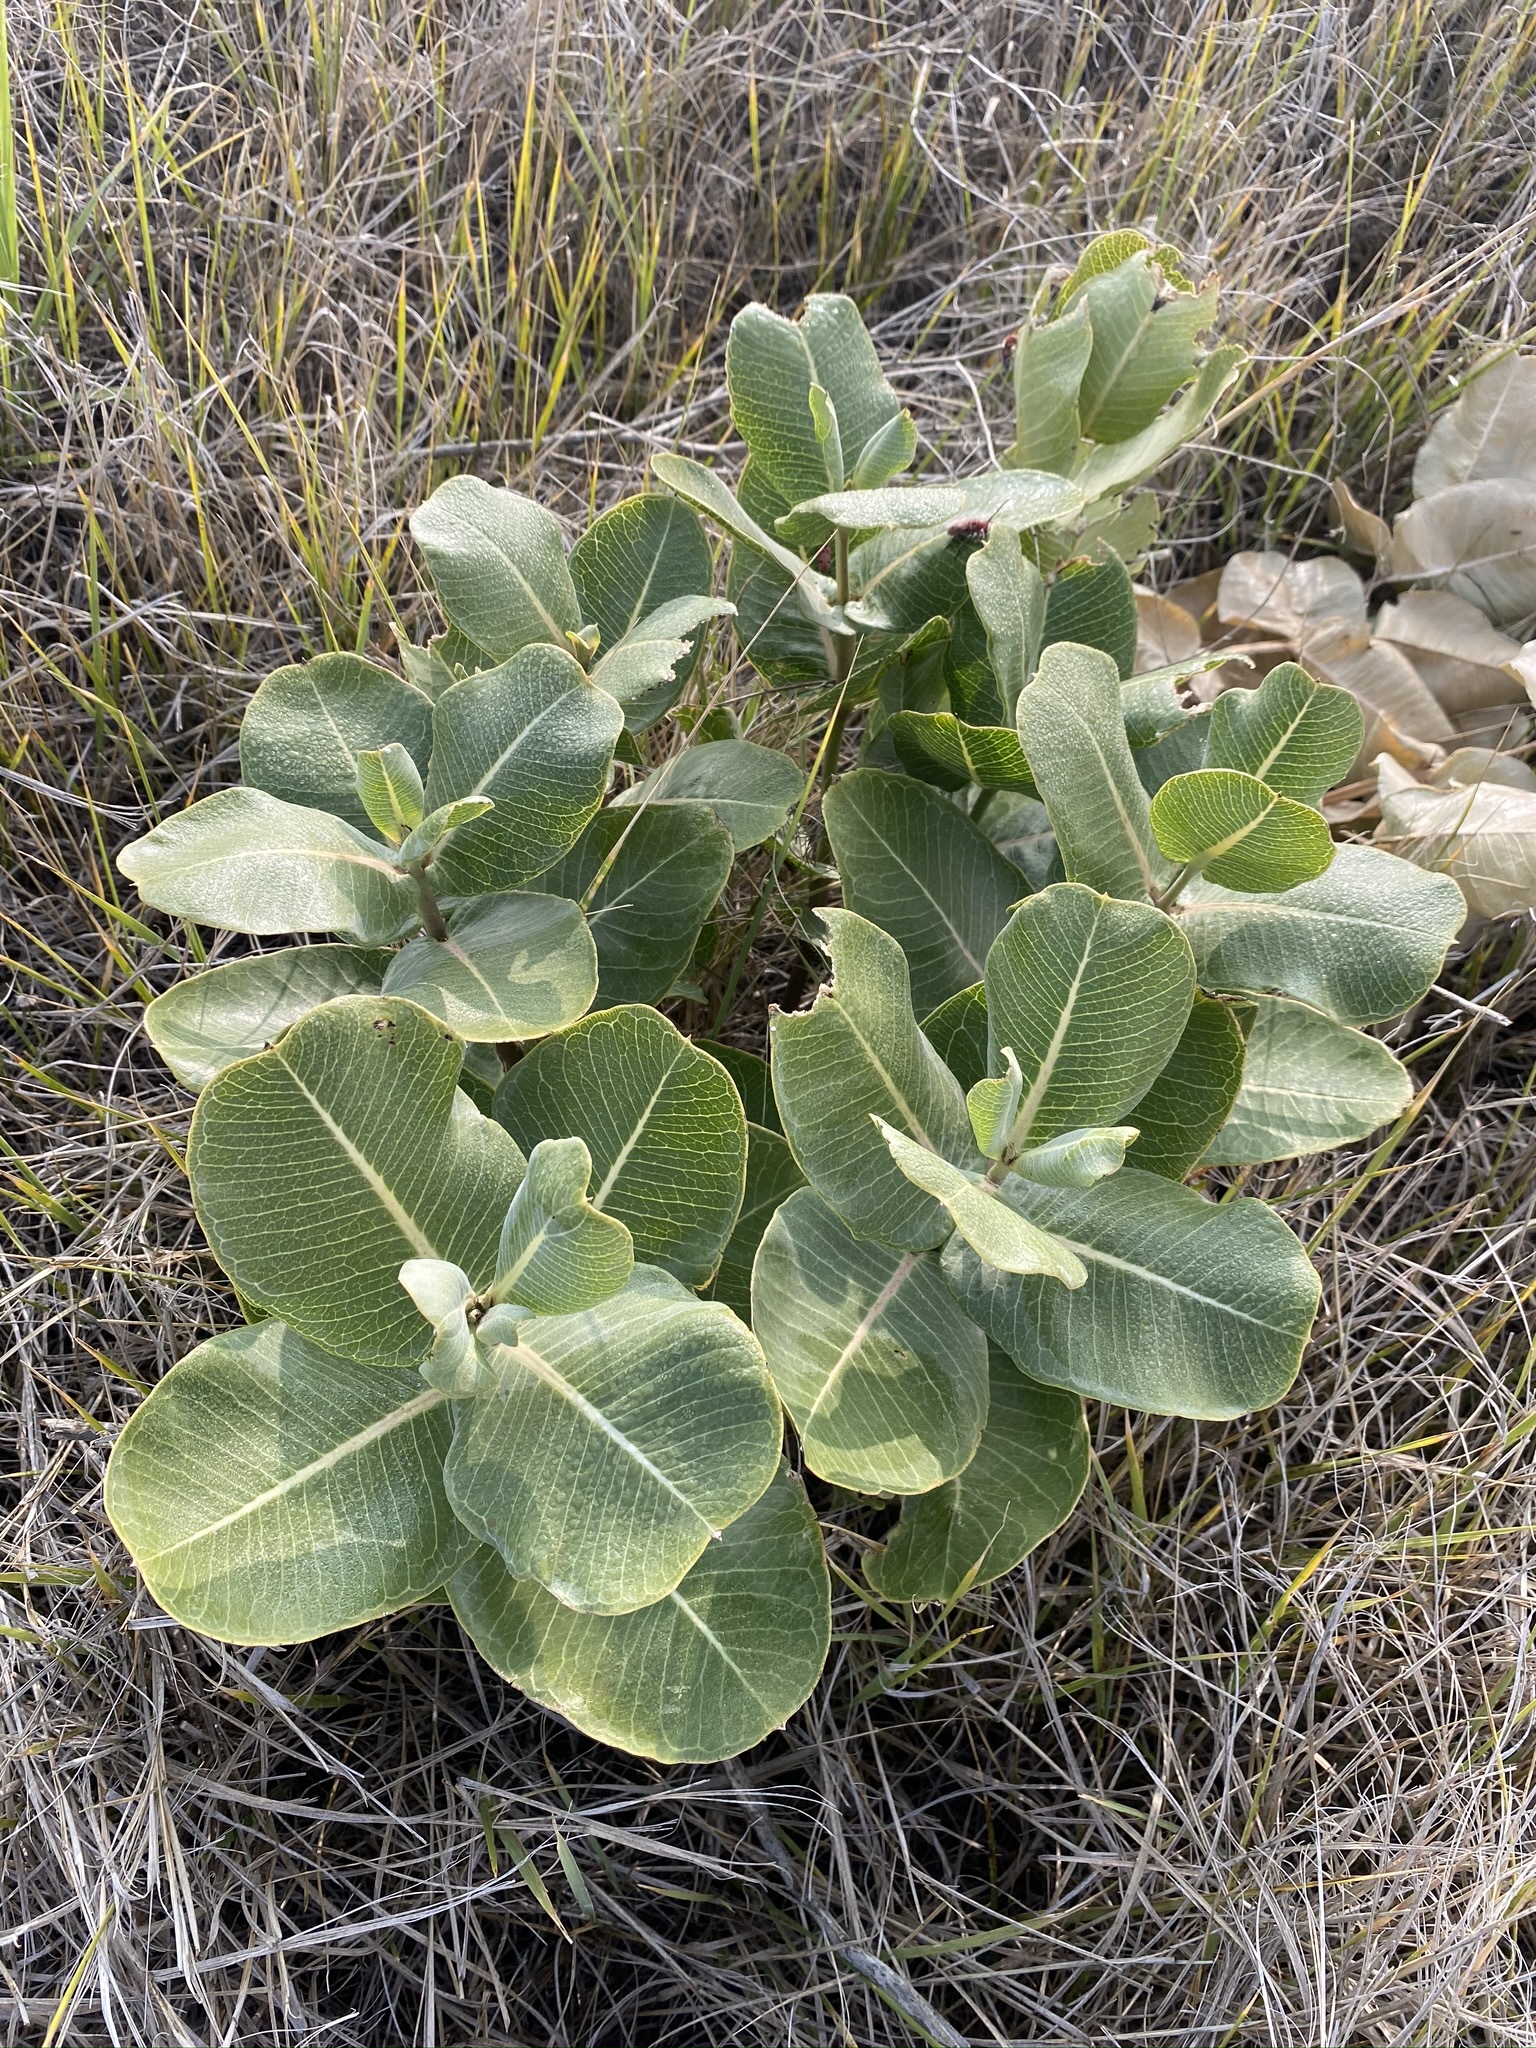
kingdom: Plantae
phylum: Tracheophyta
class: Magnoliopsida
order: Gentianales
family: Apocynaceae
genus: Asclepias
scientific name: Asclepias latifolia
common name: Broadleaf milkweed
